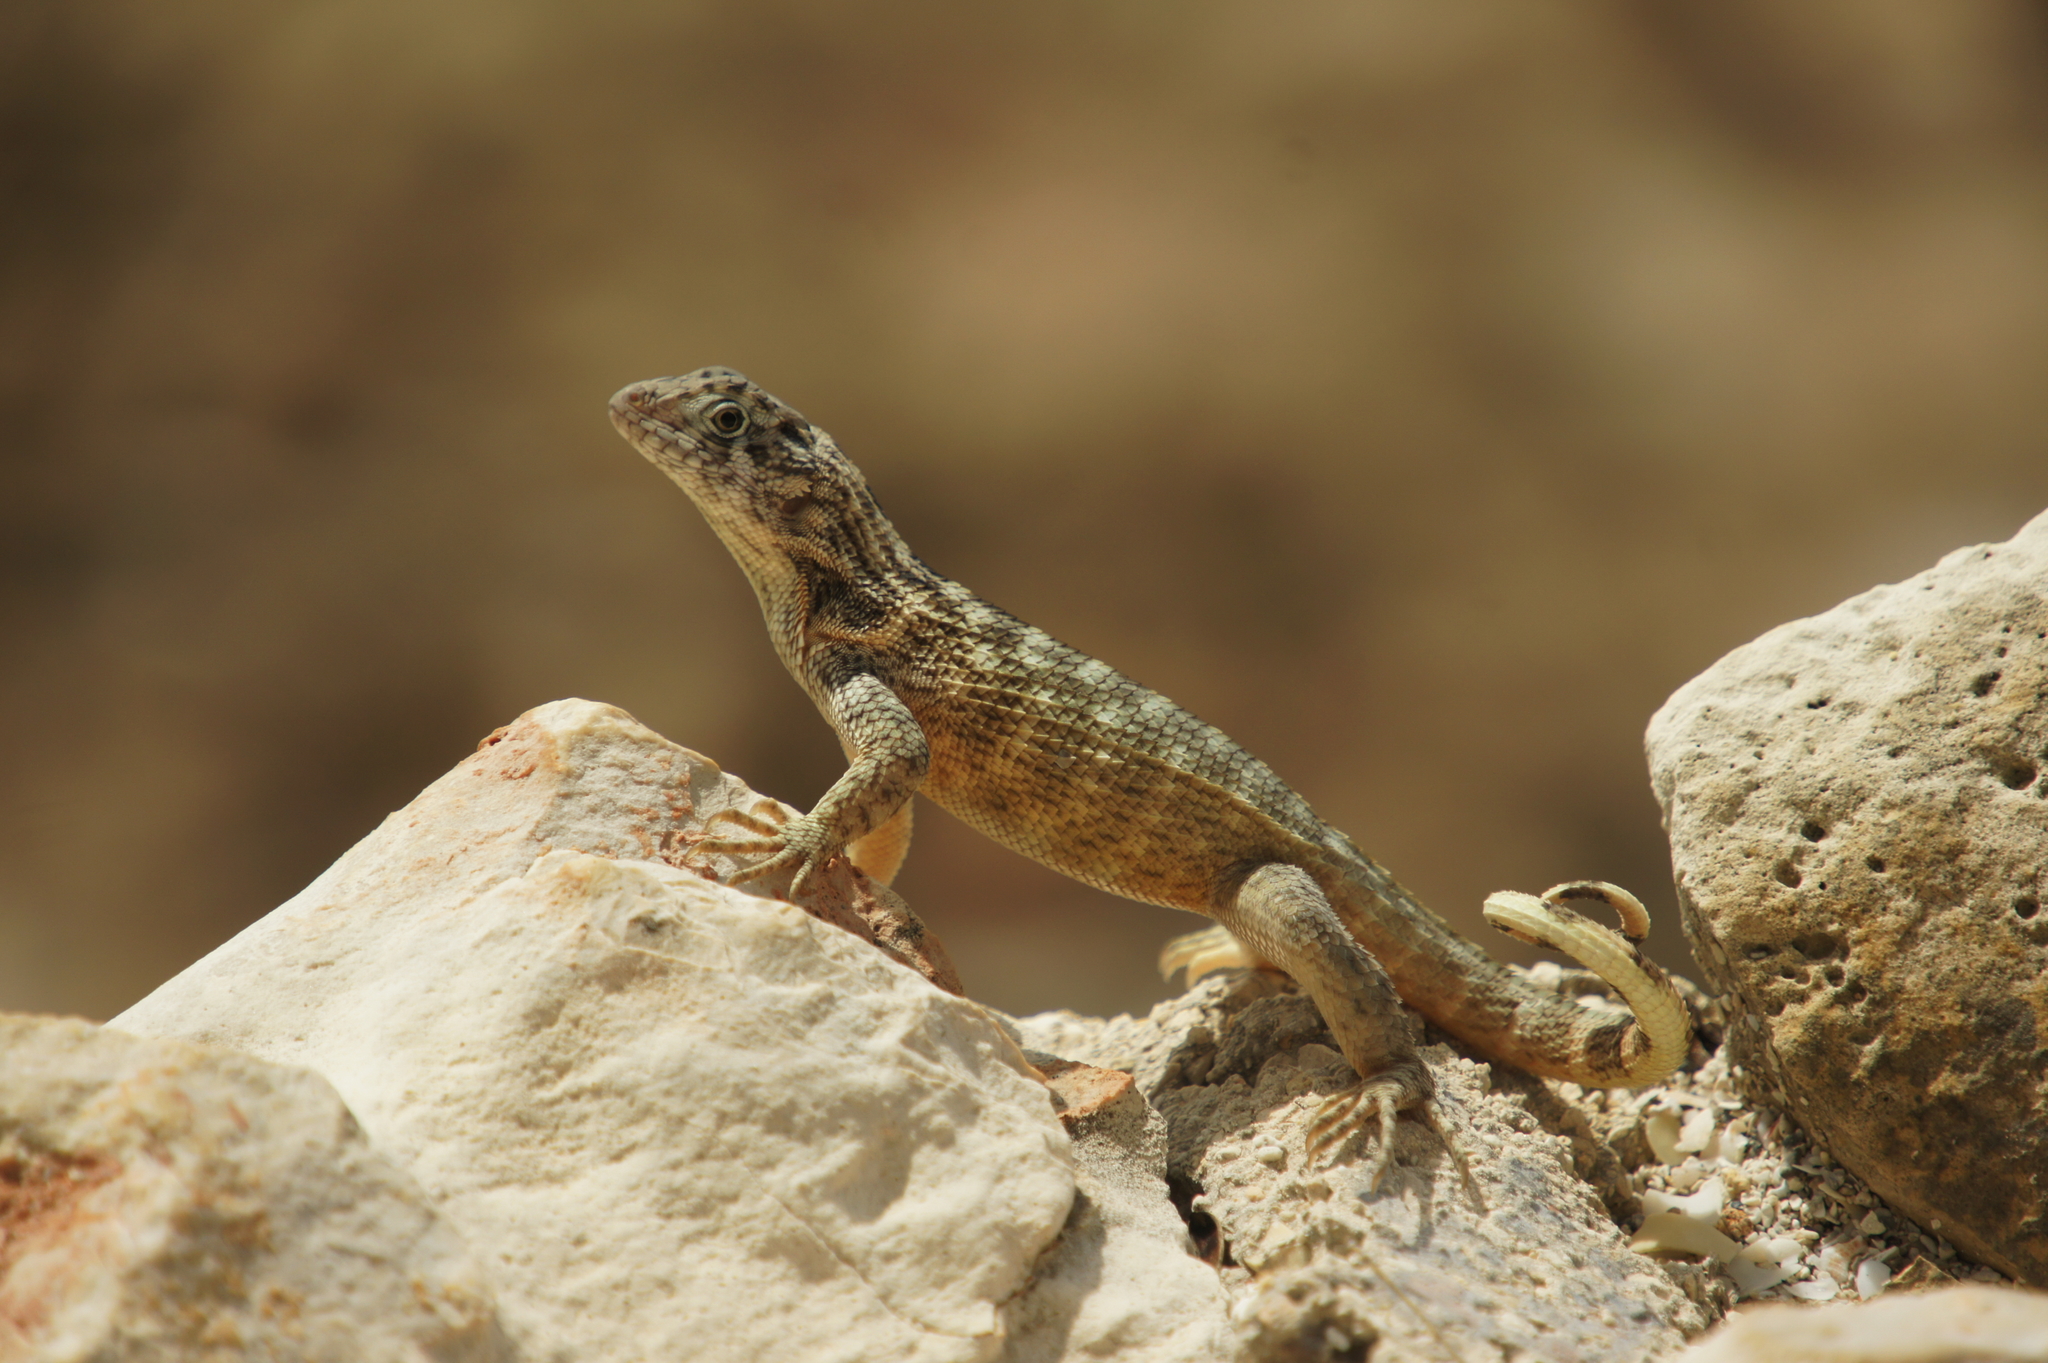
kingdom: Animalia
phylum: Chordata
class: Squamata
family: Leiocephalidae
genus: Leiocephalus
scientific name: Leiocephalus carinatus
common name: Northern curly-tailed lizard
